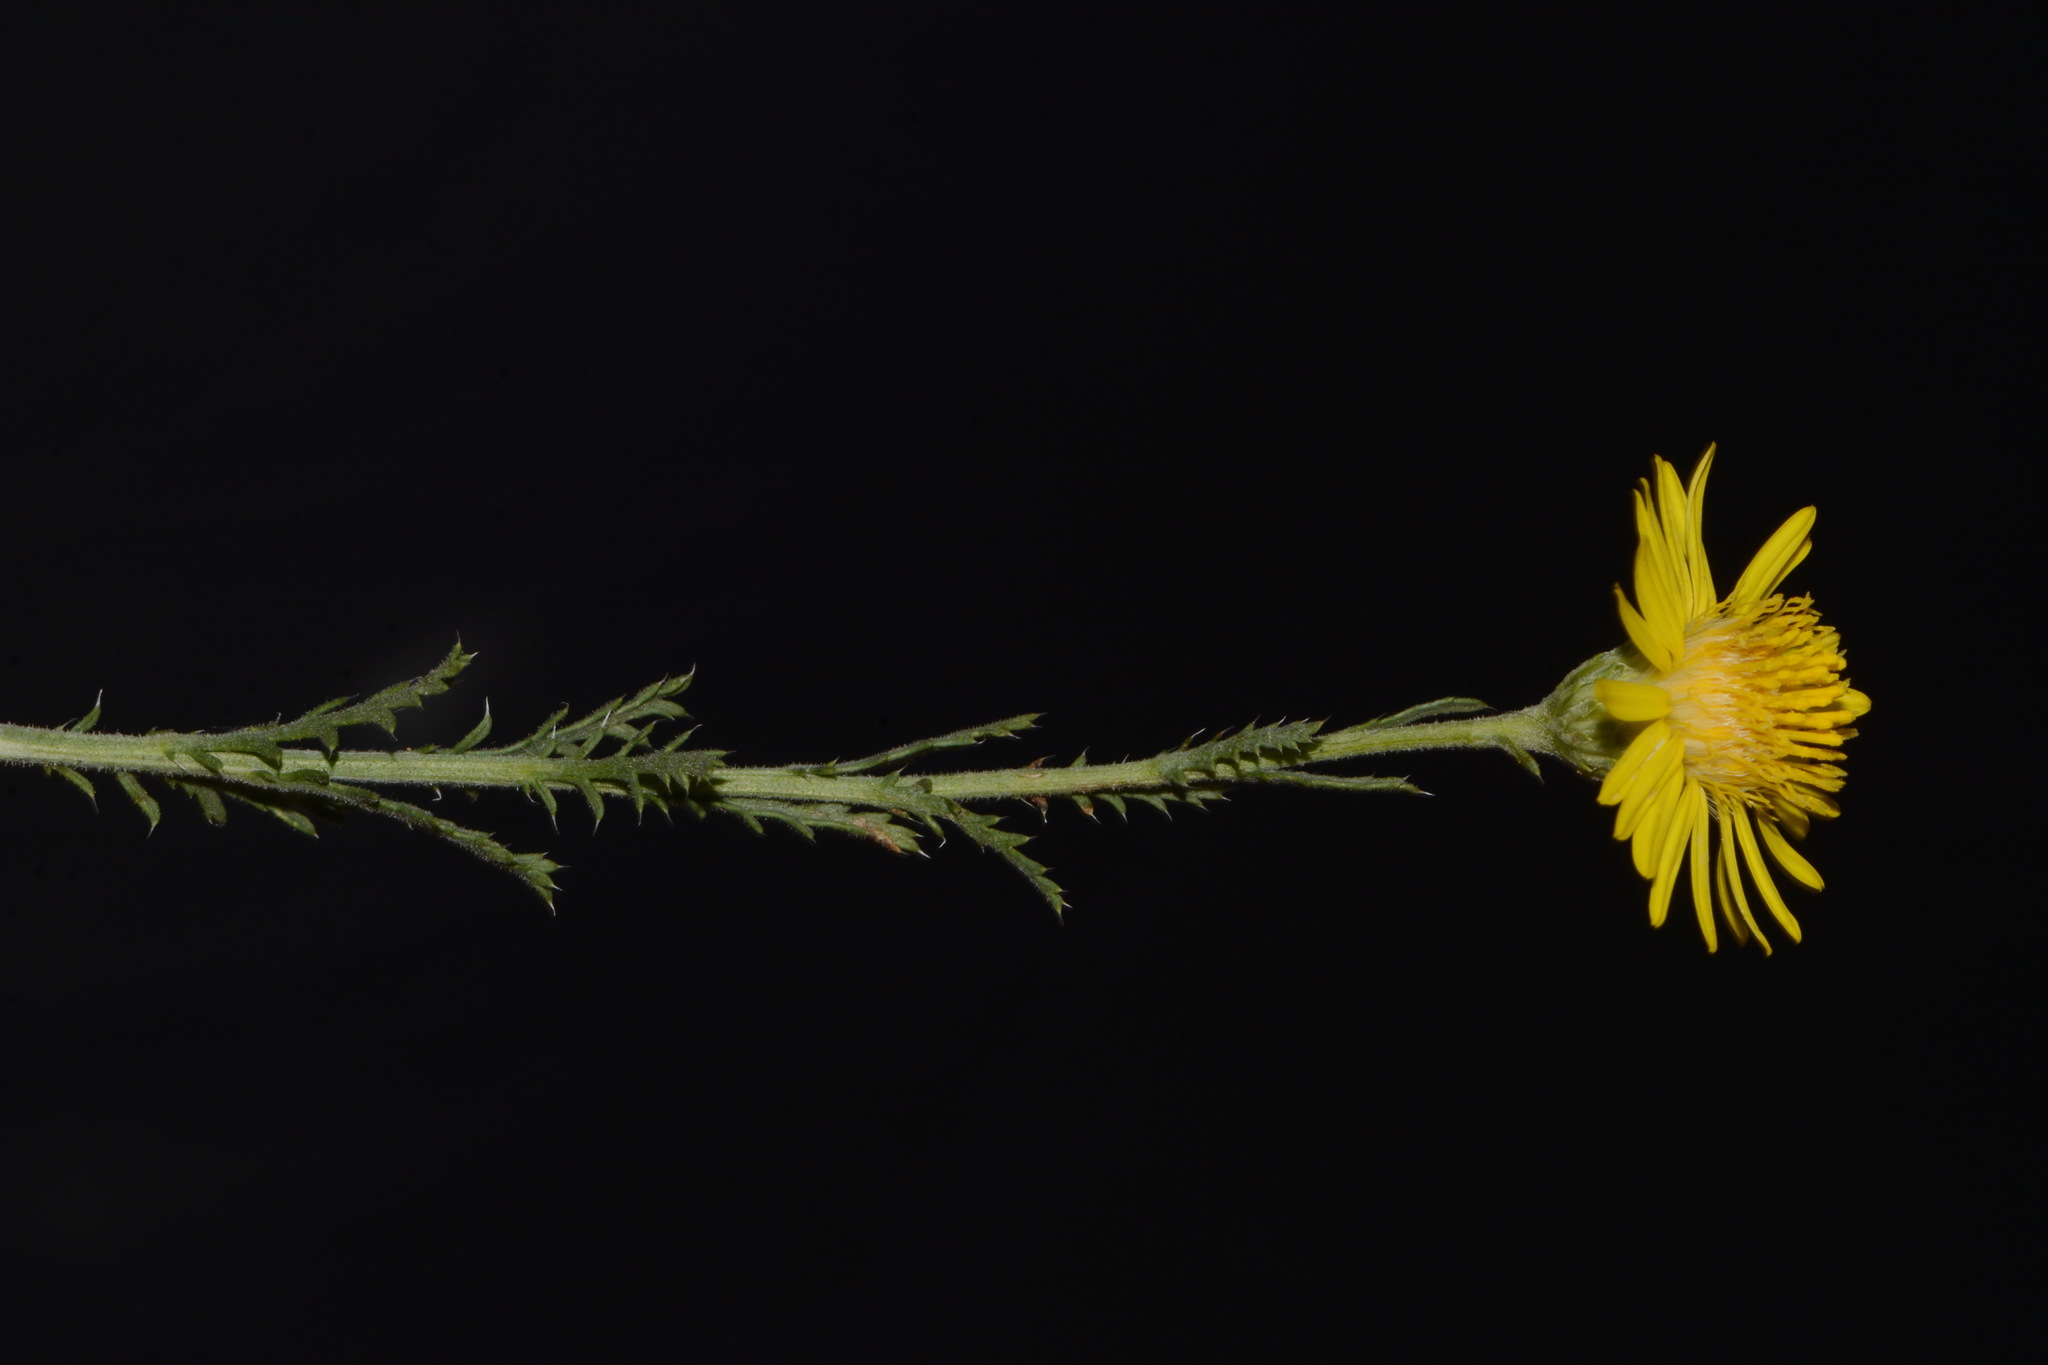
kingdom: Plantae
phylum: Tracheophyta
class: Magnoliopsida
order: Asterales
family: Asteraceae
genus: Xanthisma
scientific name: Xanthisma spinulosum
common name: Spiny goldenweed
